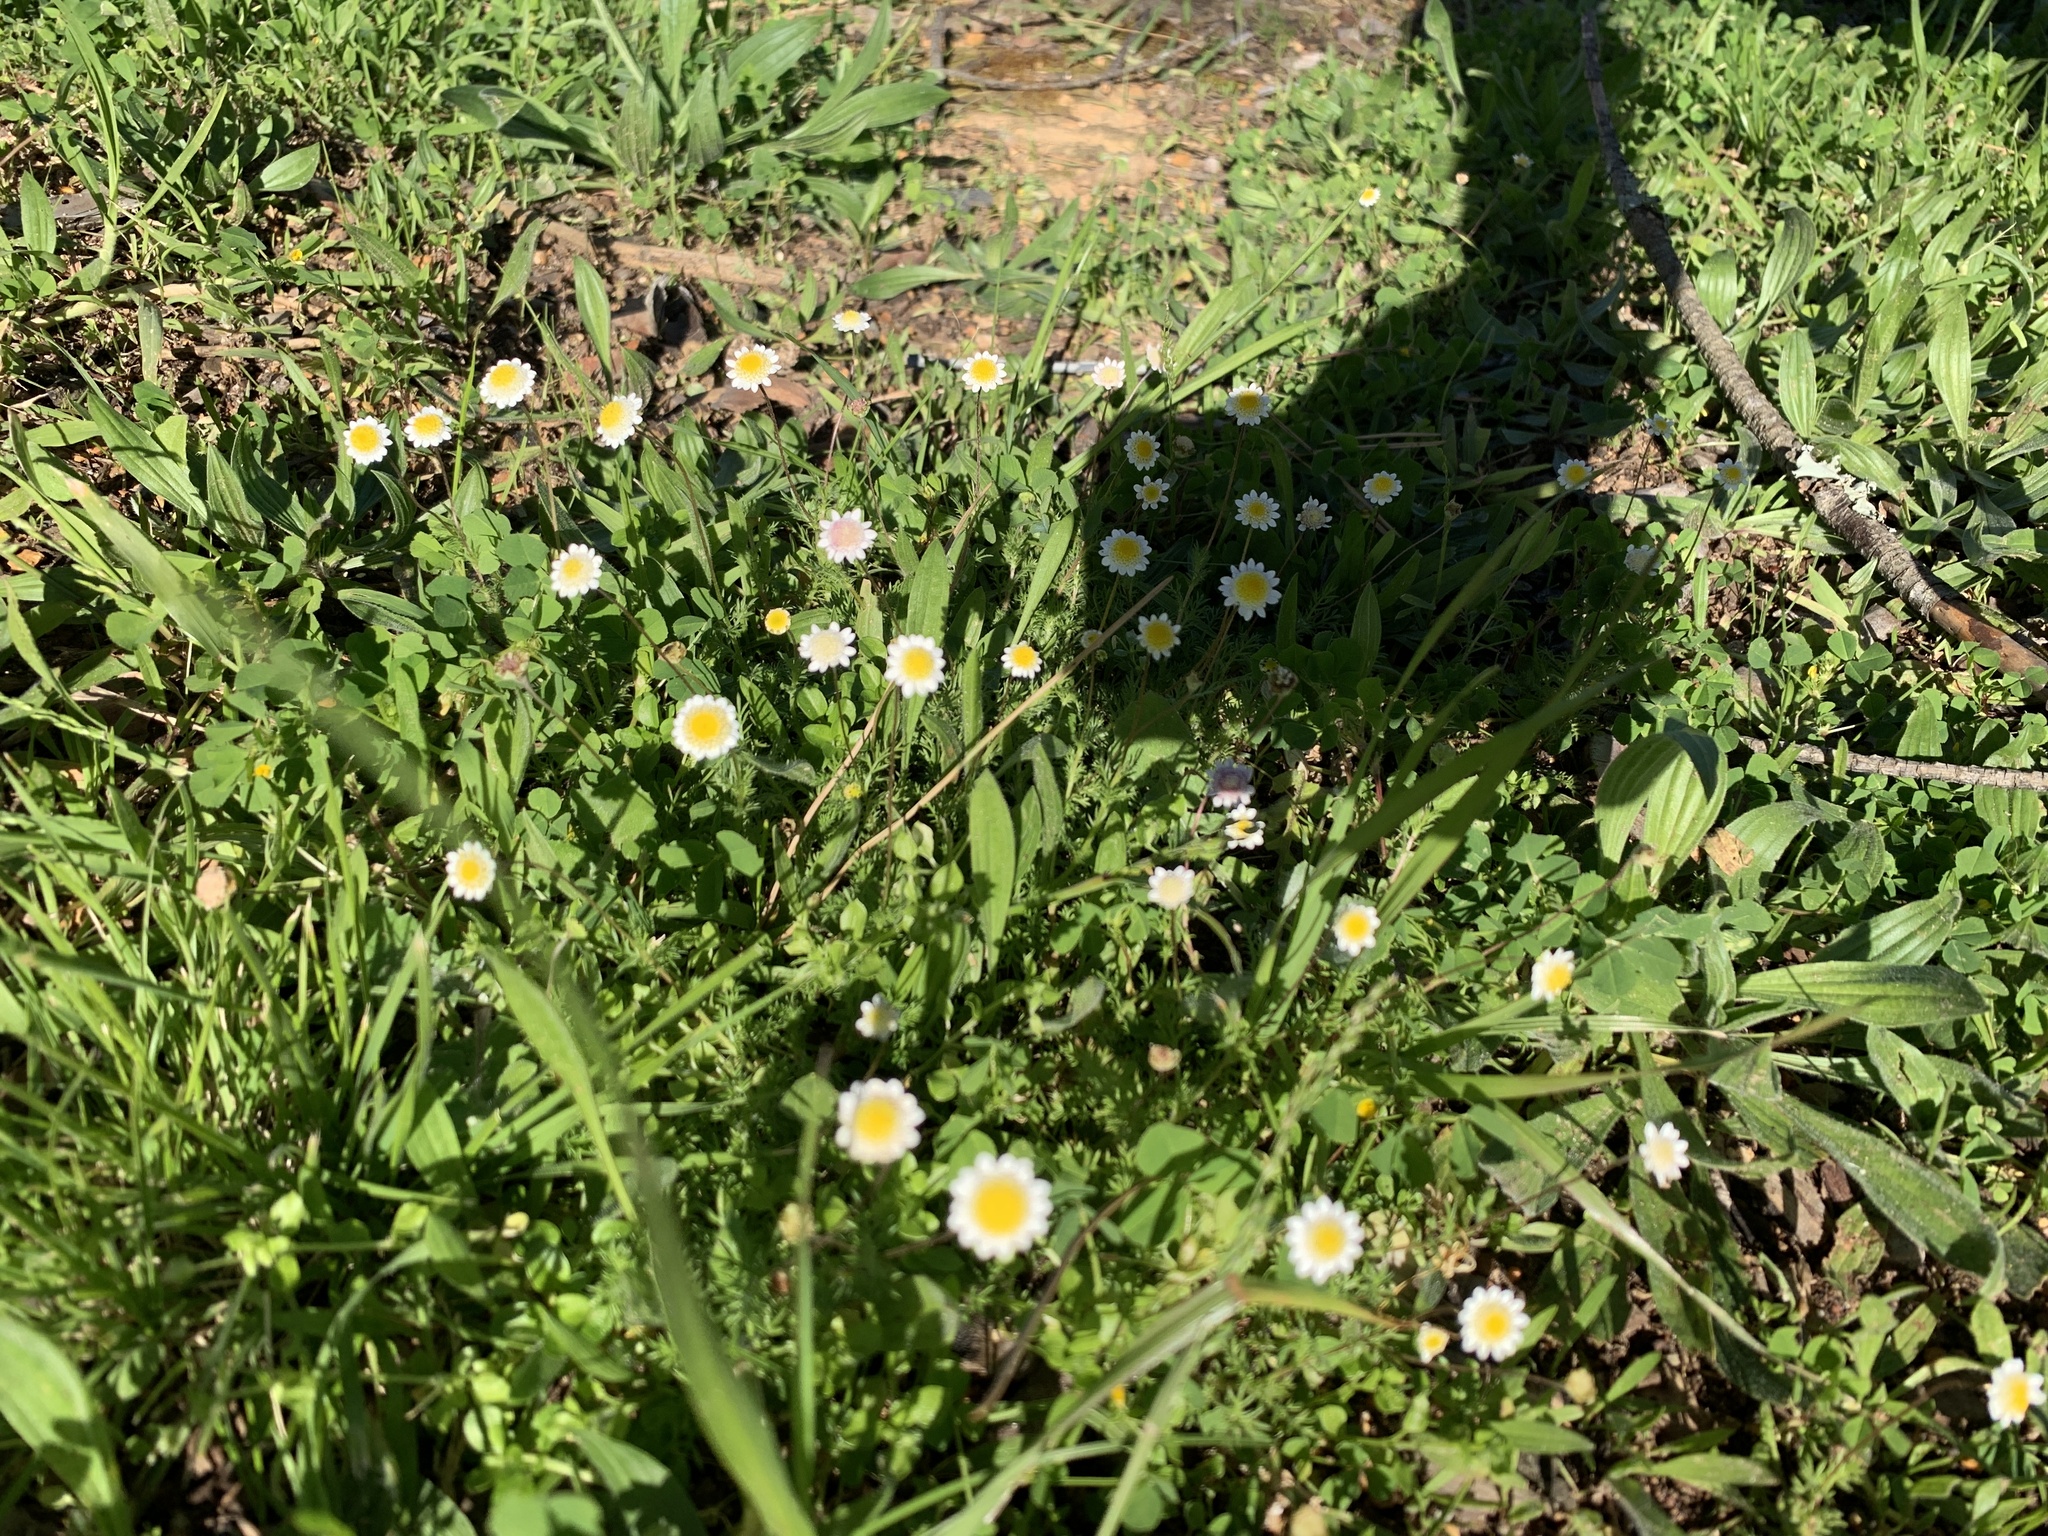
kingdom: Plantae
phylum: Tracheophyta
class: Magnoliopsida
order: Asterales
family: Asteraceae
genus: Cotula
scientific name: Cotula turbinata
